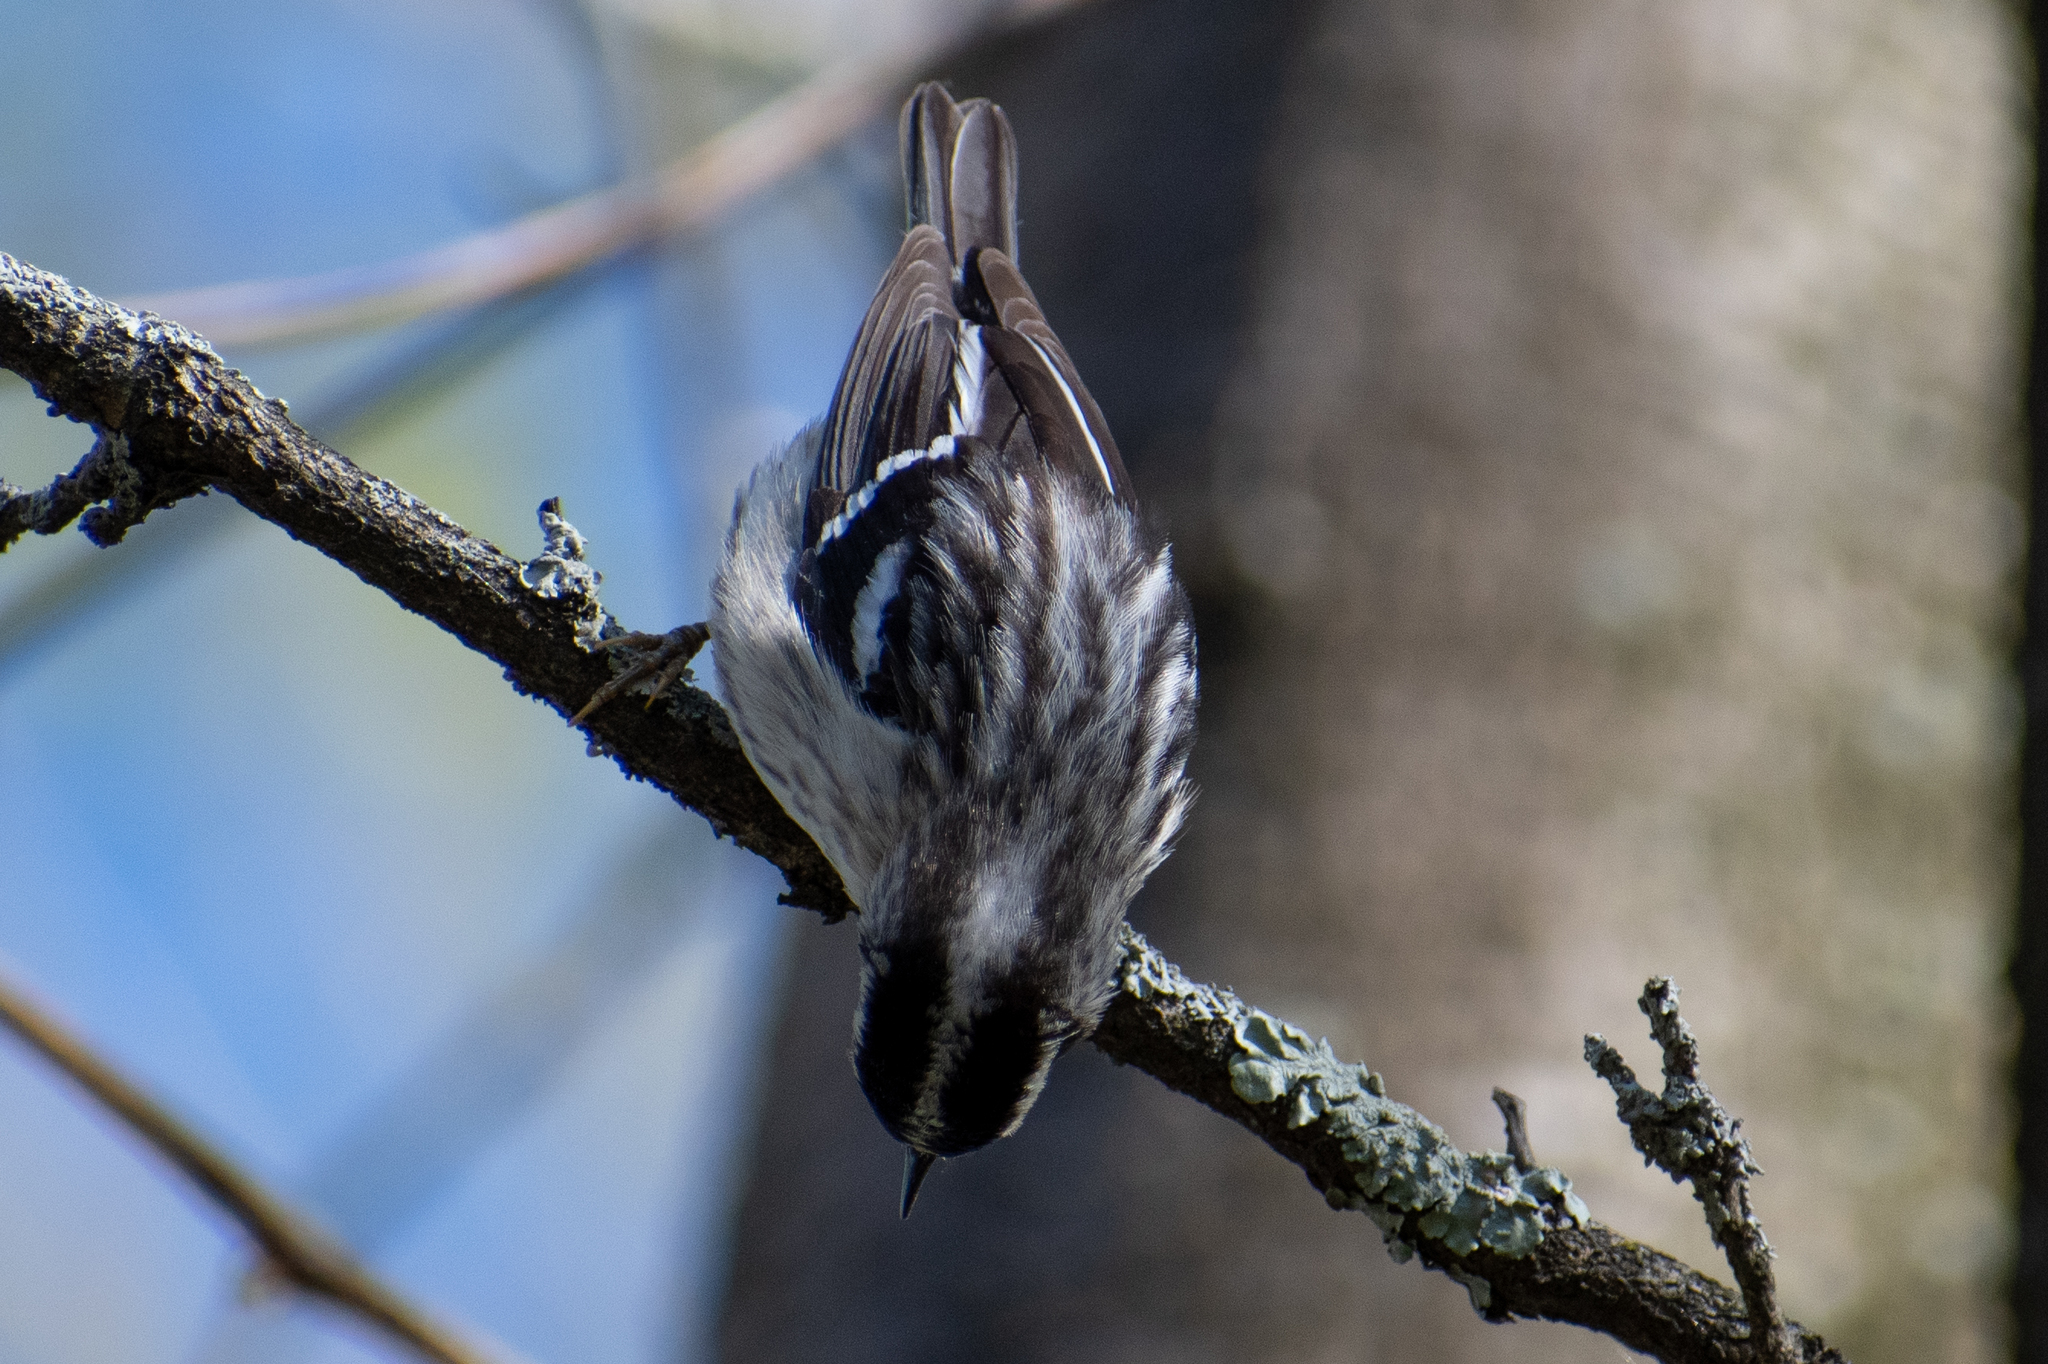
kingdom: Animalia
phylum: Chordata
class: Aves
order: Passeriformes
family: Parulidae
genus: Mniotilta
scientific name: Mniotilta varia
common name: Black-and-white warbler
